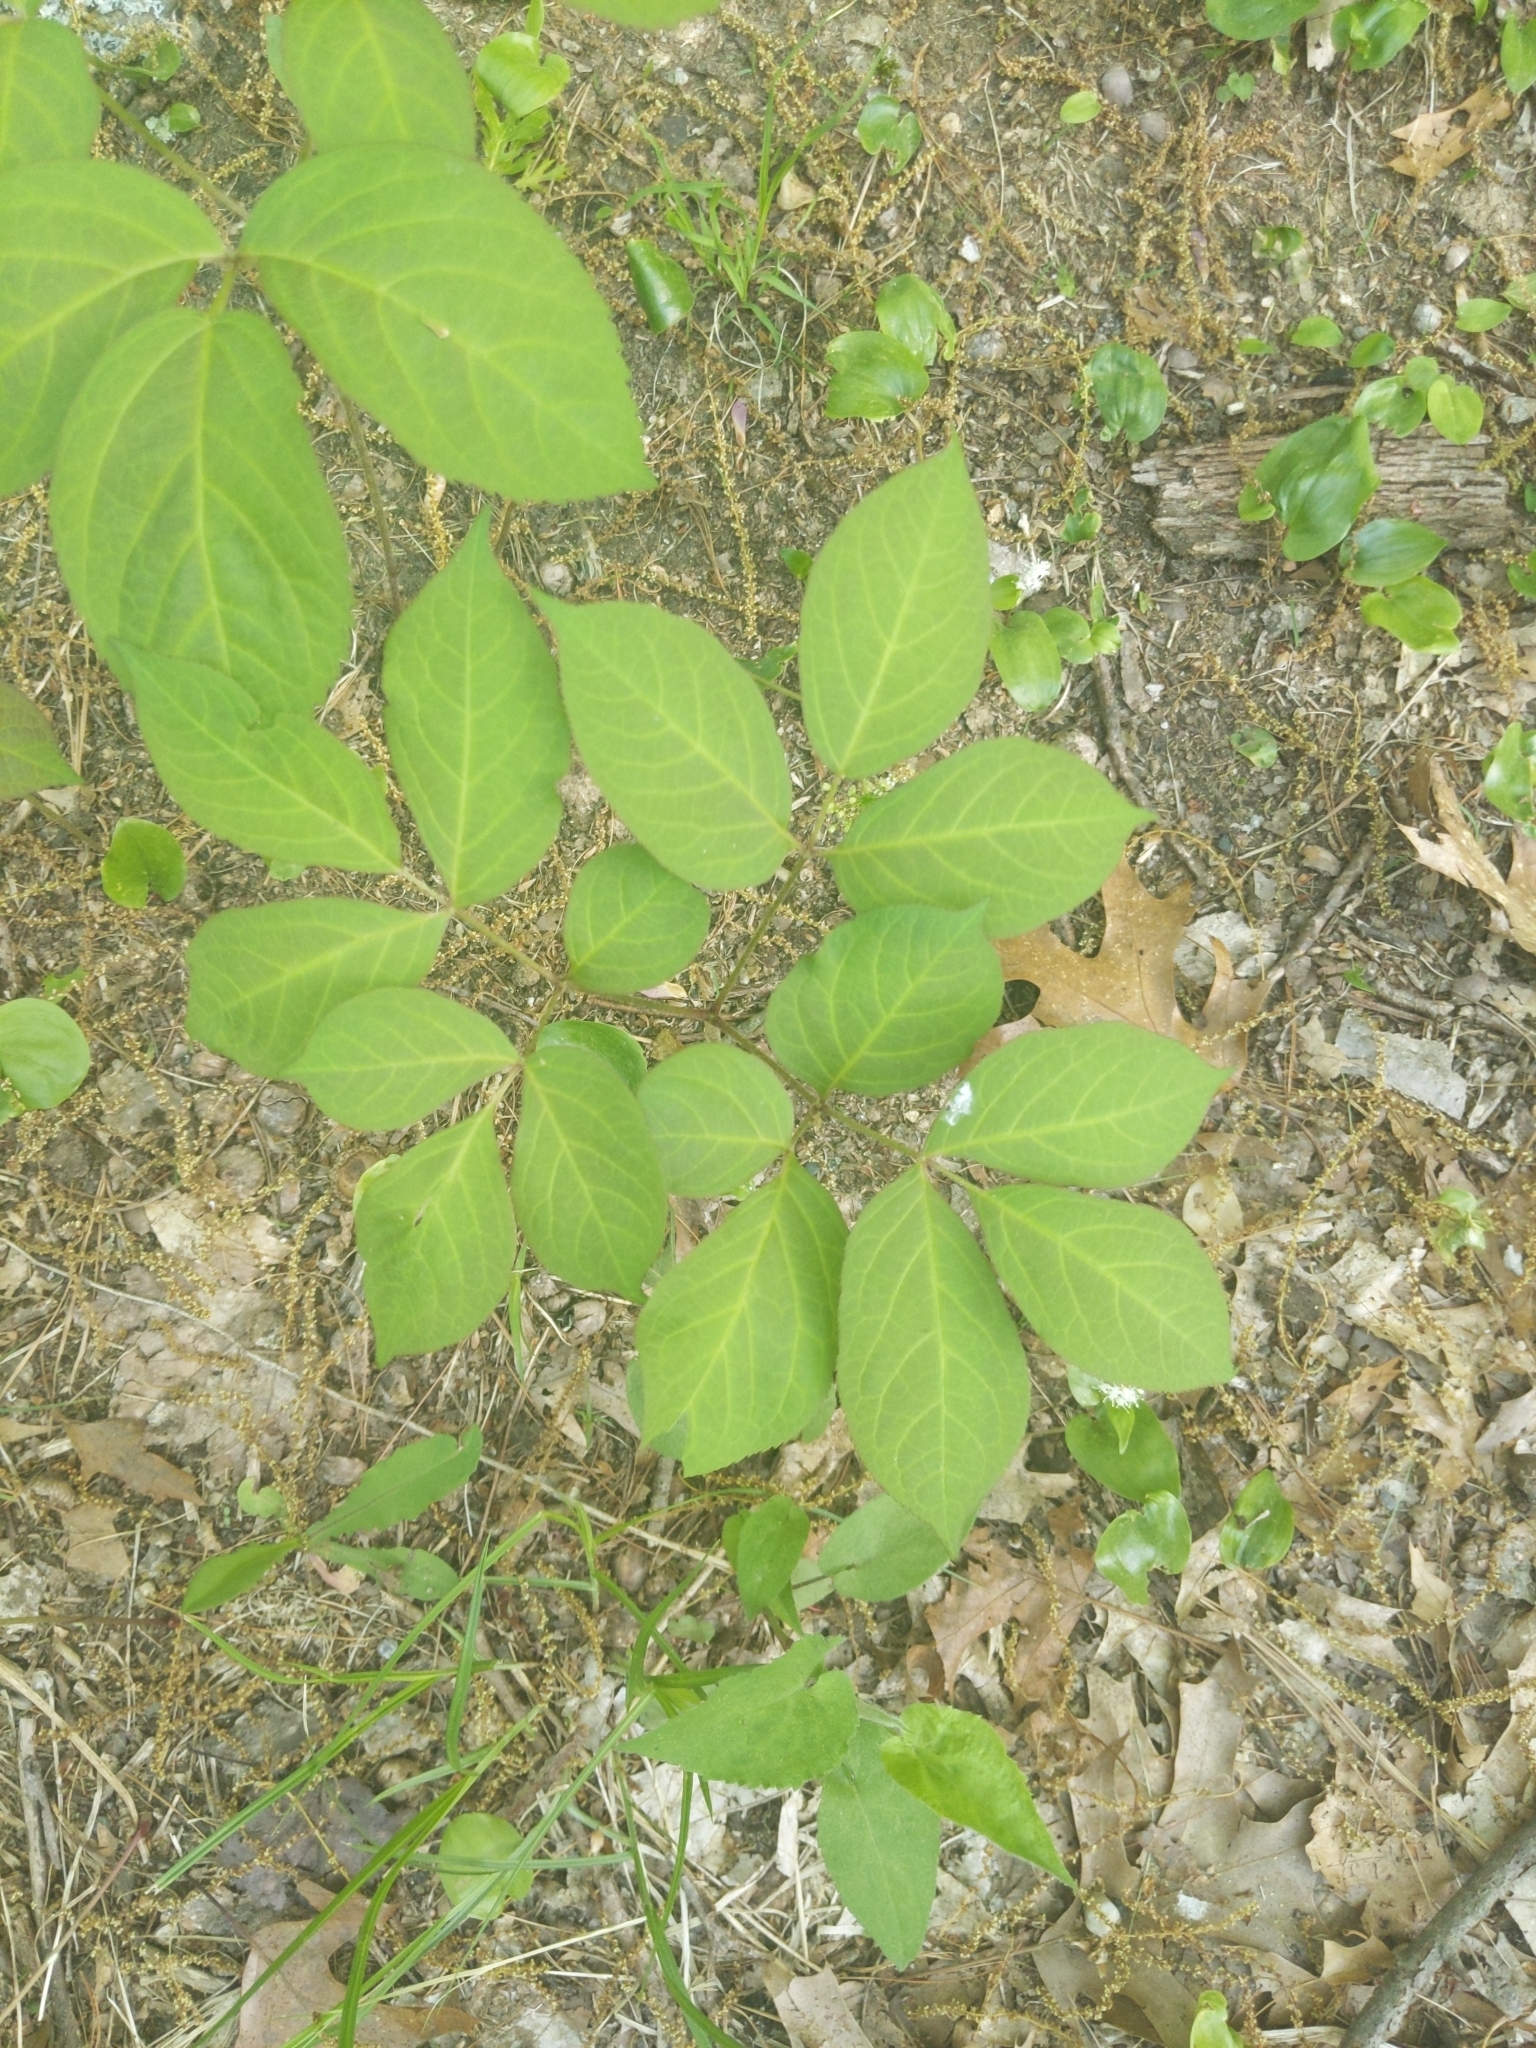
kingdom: Plantae
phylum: Tracheophyta
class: Magnoliopsida
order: Apiales
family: Araliaceae
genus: Aralia
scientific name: Aralia nudicaulis
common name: Wild sarsaparilla
